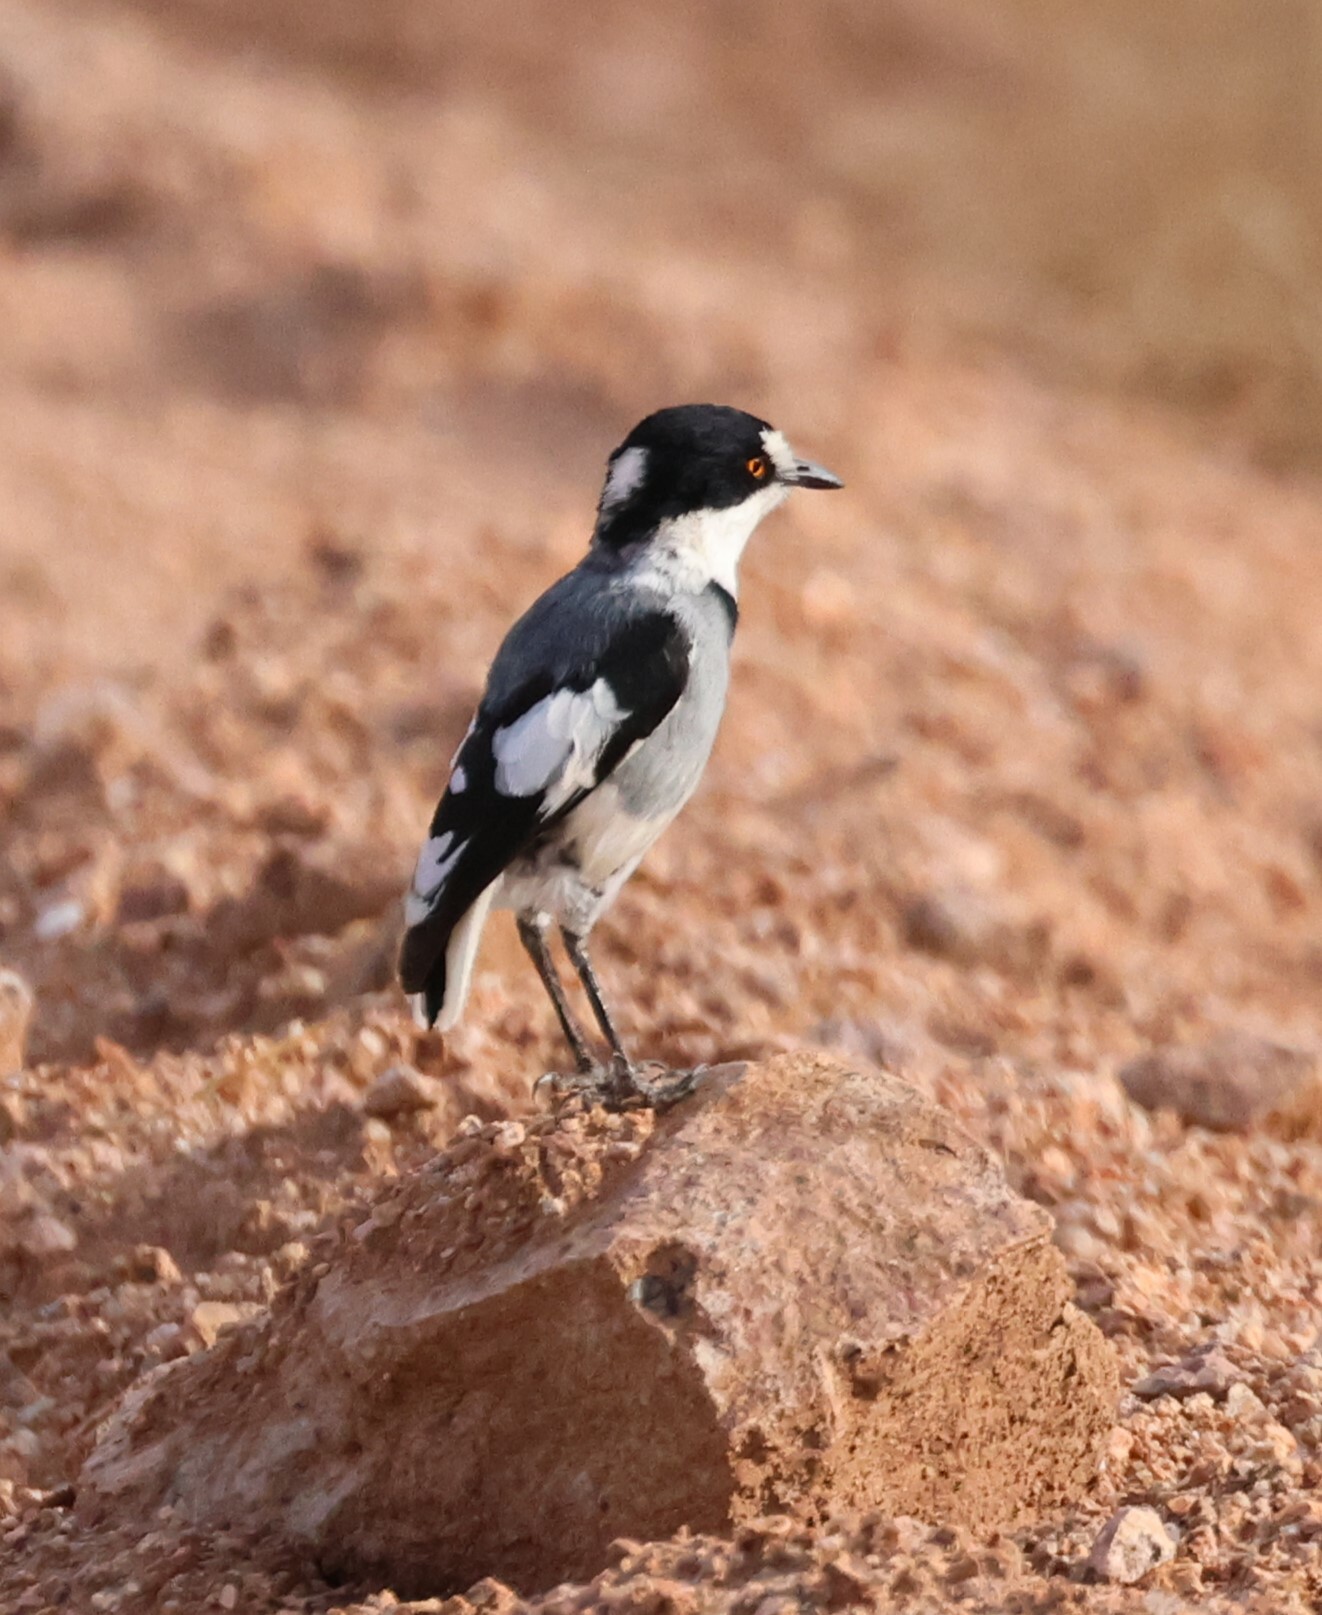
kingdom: Animalia
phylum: Chordata
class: Aves
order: Passeriformes
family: Platysteiridae
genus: Lanioturdus
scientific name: Lanioturdus torquatus
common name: White-tailed shrike
